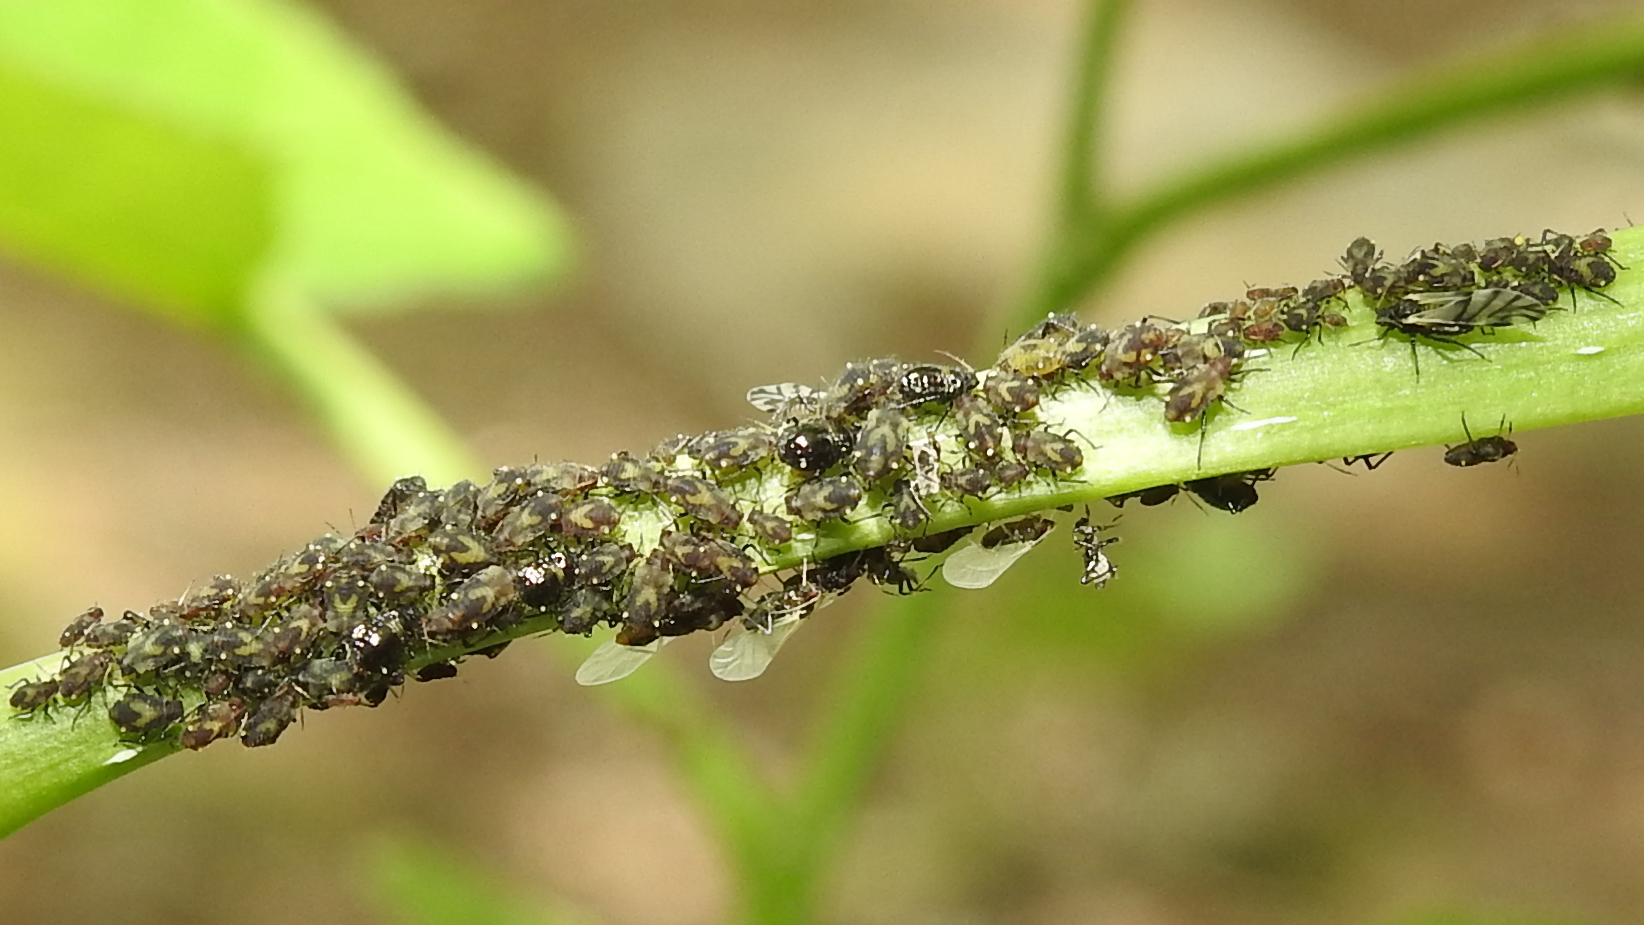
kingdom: Animalia
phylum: Arthropoda
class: Insecta
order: Hemiptera
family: Aphididae
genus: Chaitophorus
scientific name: Chaitophorus populicola
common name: Smokywinged poplar aphid
